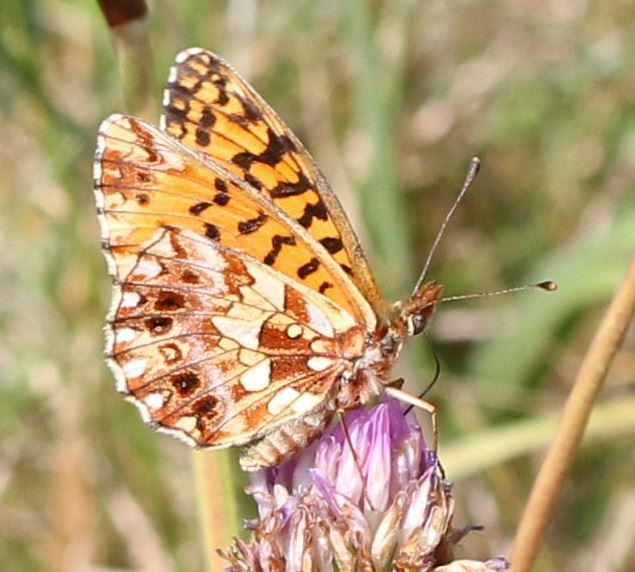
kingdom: Animalia
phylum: Arthropoda
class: Insecta
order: Lepidoptera
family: Nymphalidae
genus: Boloria
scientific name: Boloria dia
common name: Weaver's fritillary
